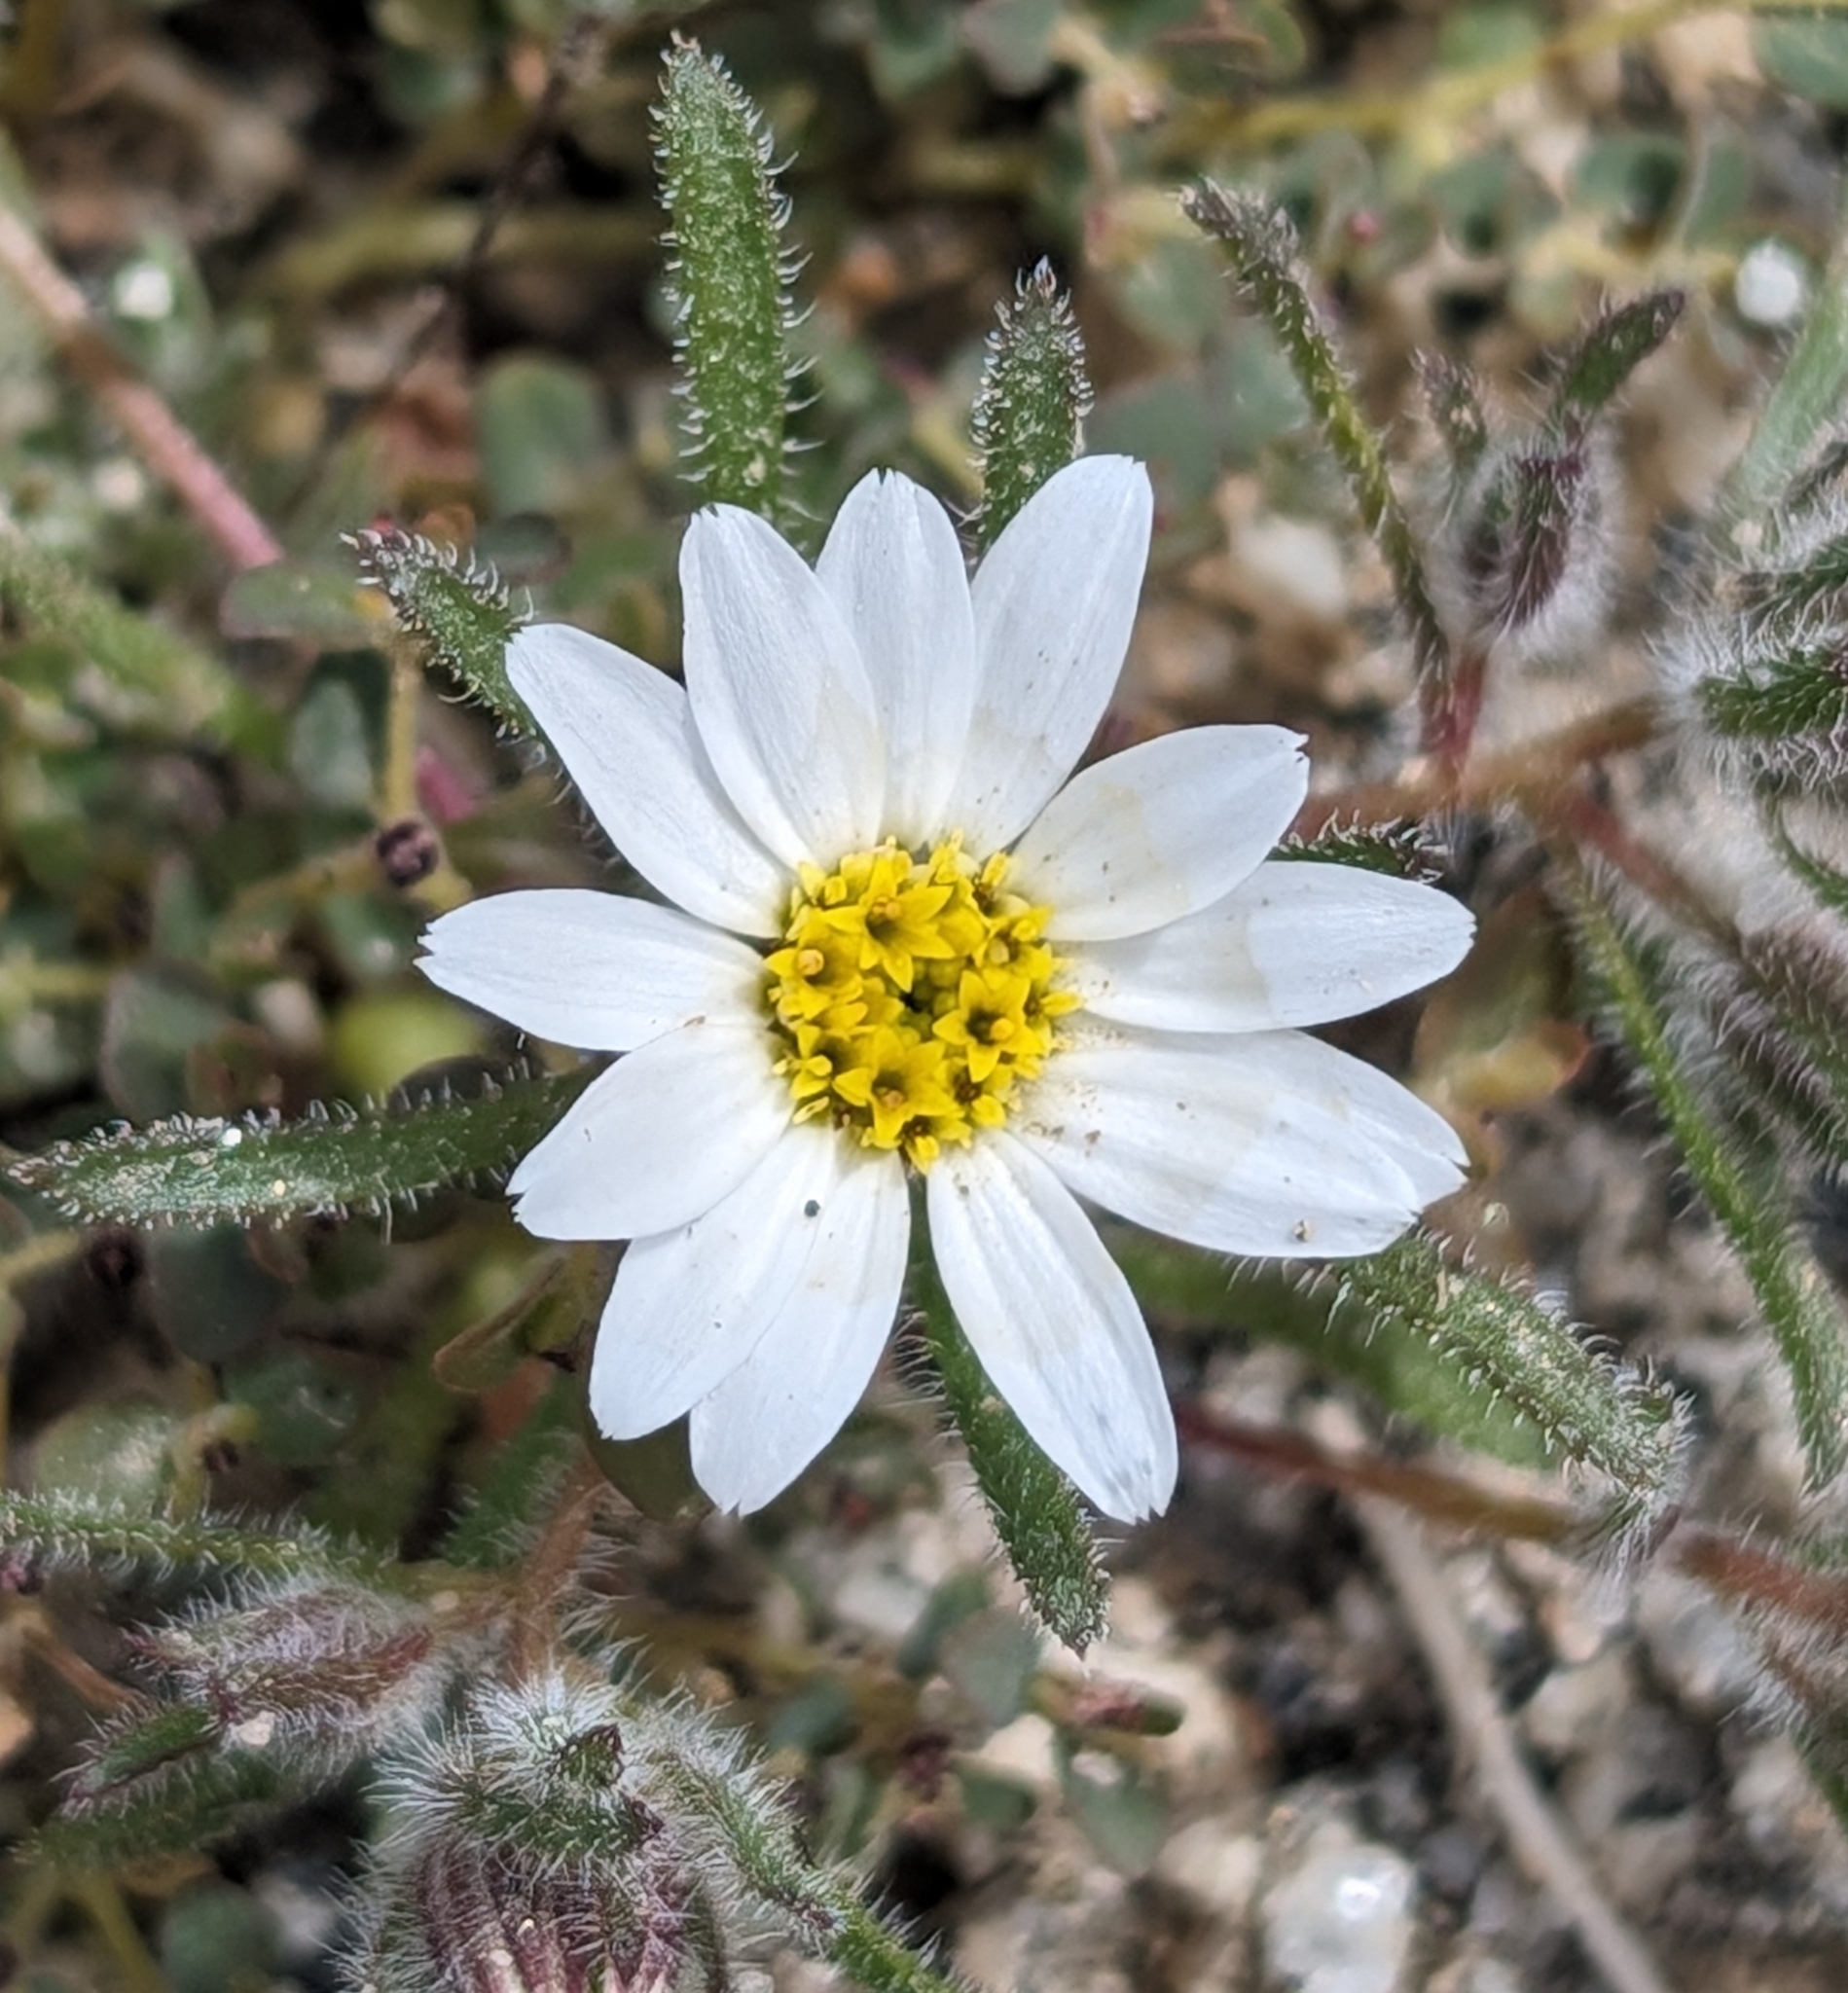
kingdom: Plantae
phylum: Tracheophyta
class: Magnoliopsida
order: Asterales
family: Asteraceae
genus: Monoptilon
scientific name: Monoptilon bellioides
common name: Bristly desertstar
